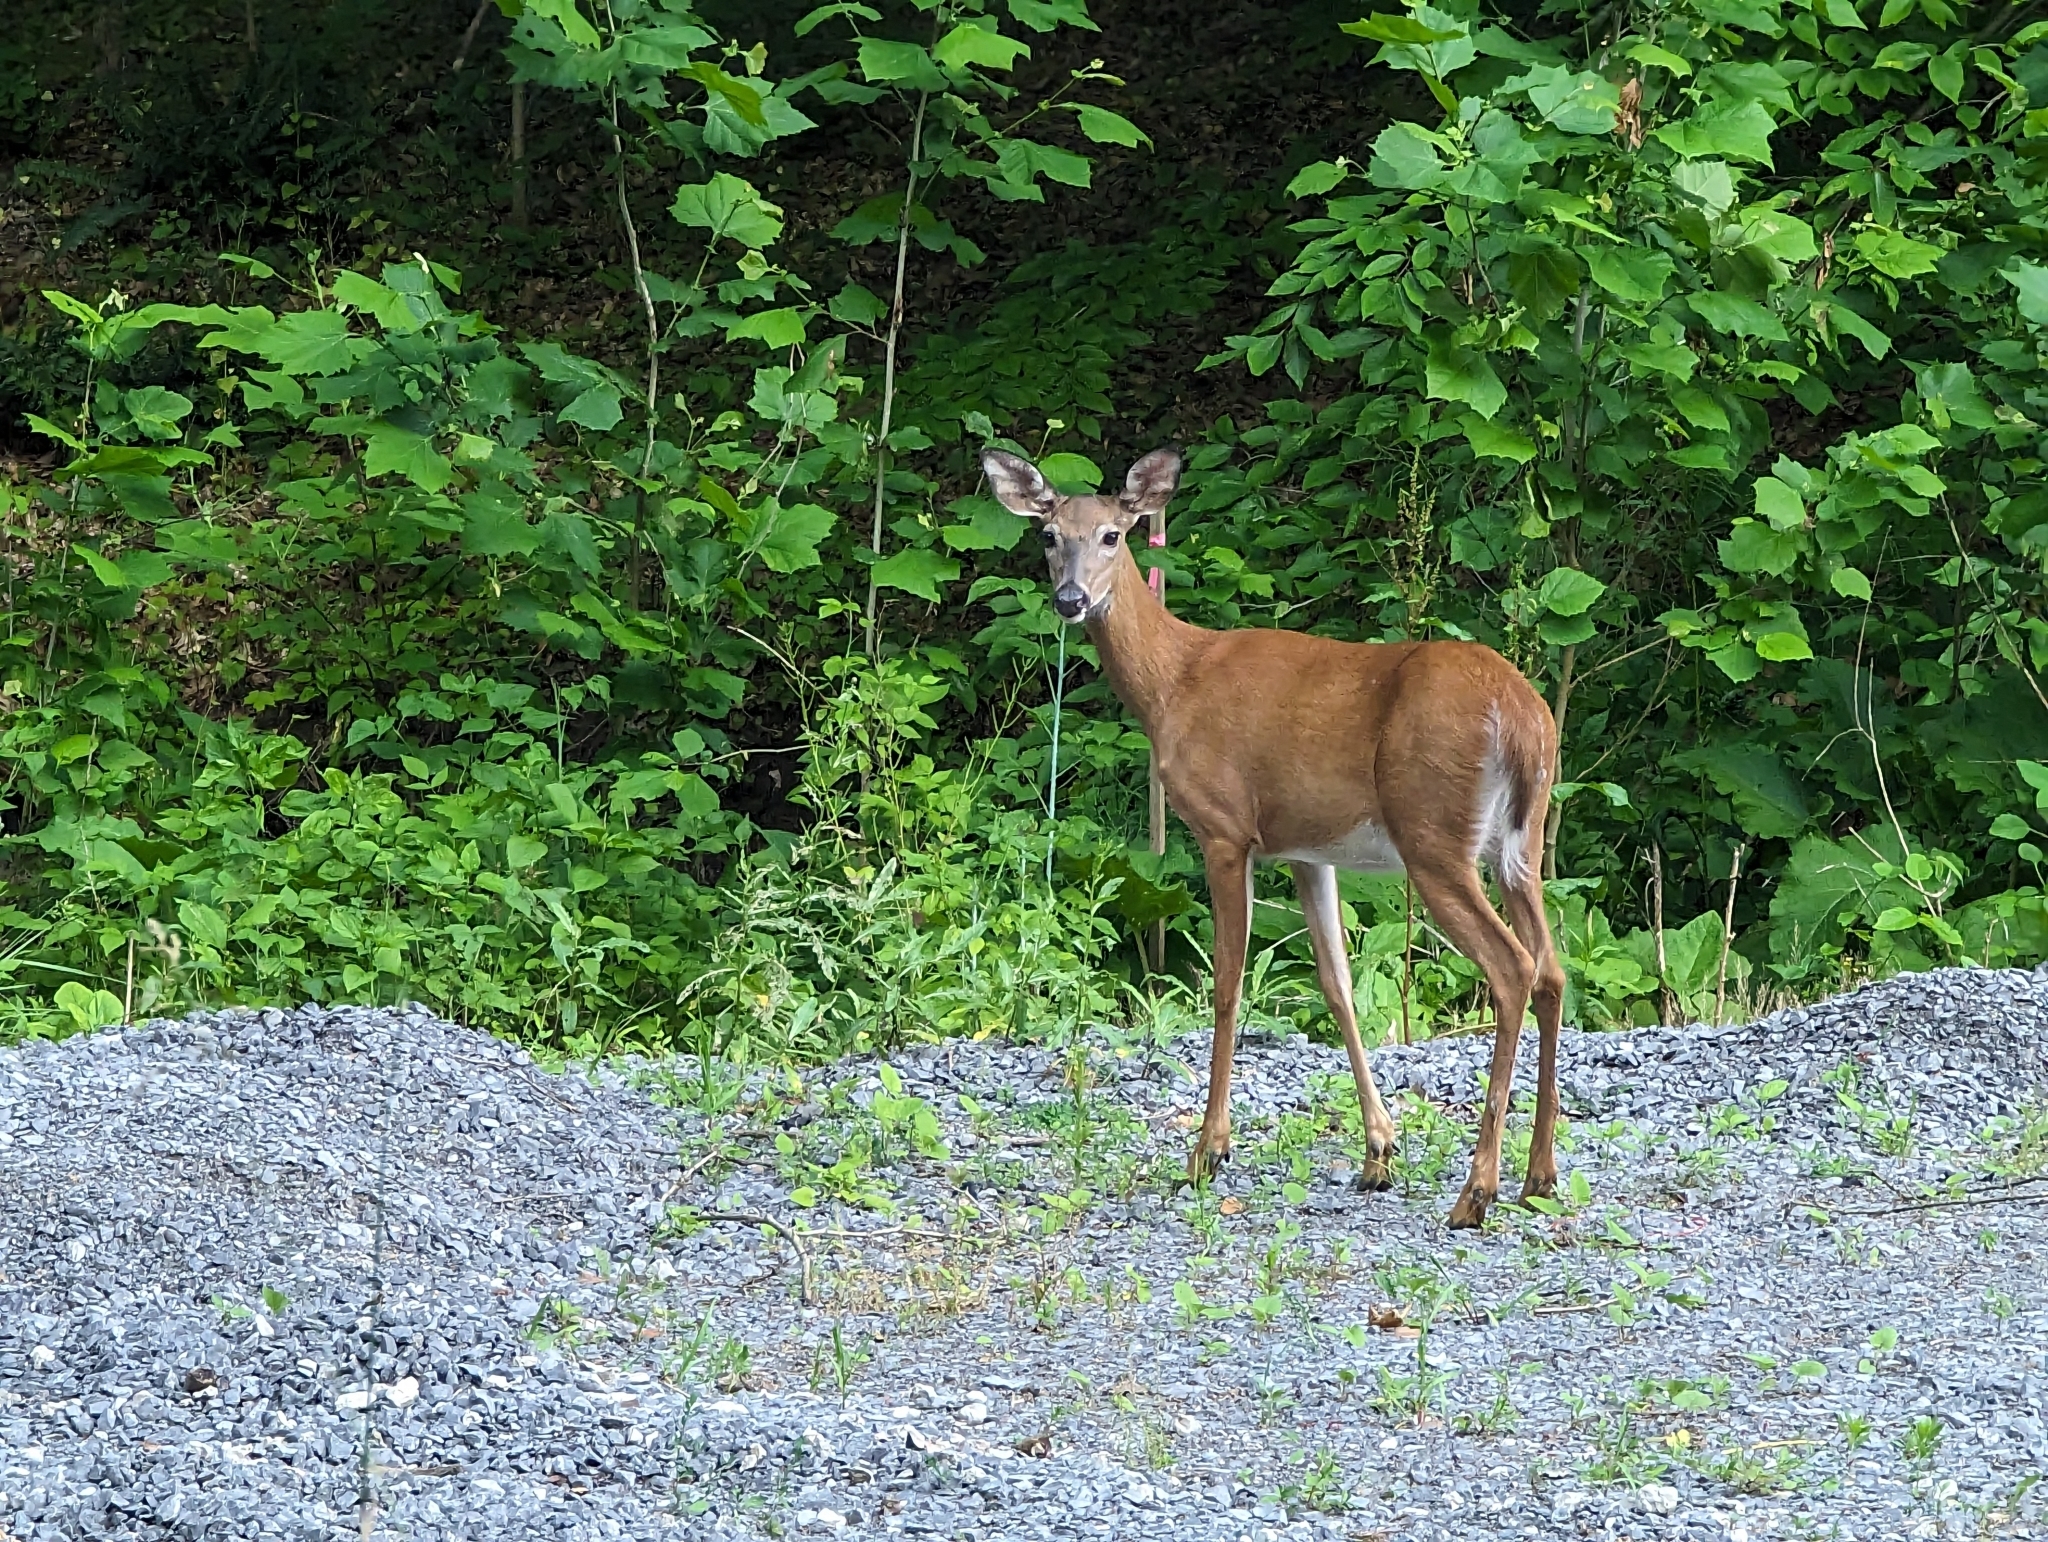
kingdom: Animalia
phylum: Chordata
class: Mammalia
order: Artiodactyla
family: Cervidae
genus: Odocoileus
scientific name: Odocoileus virginianus
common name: White-tailed deer
